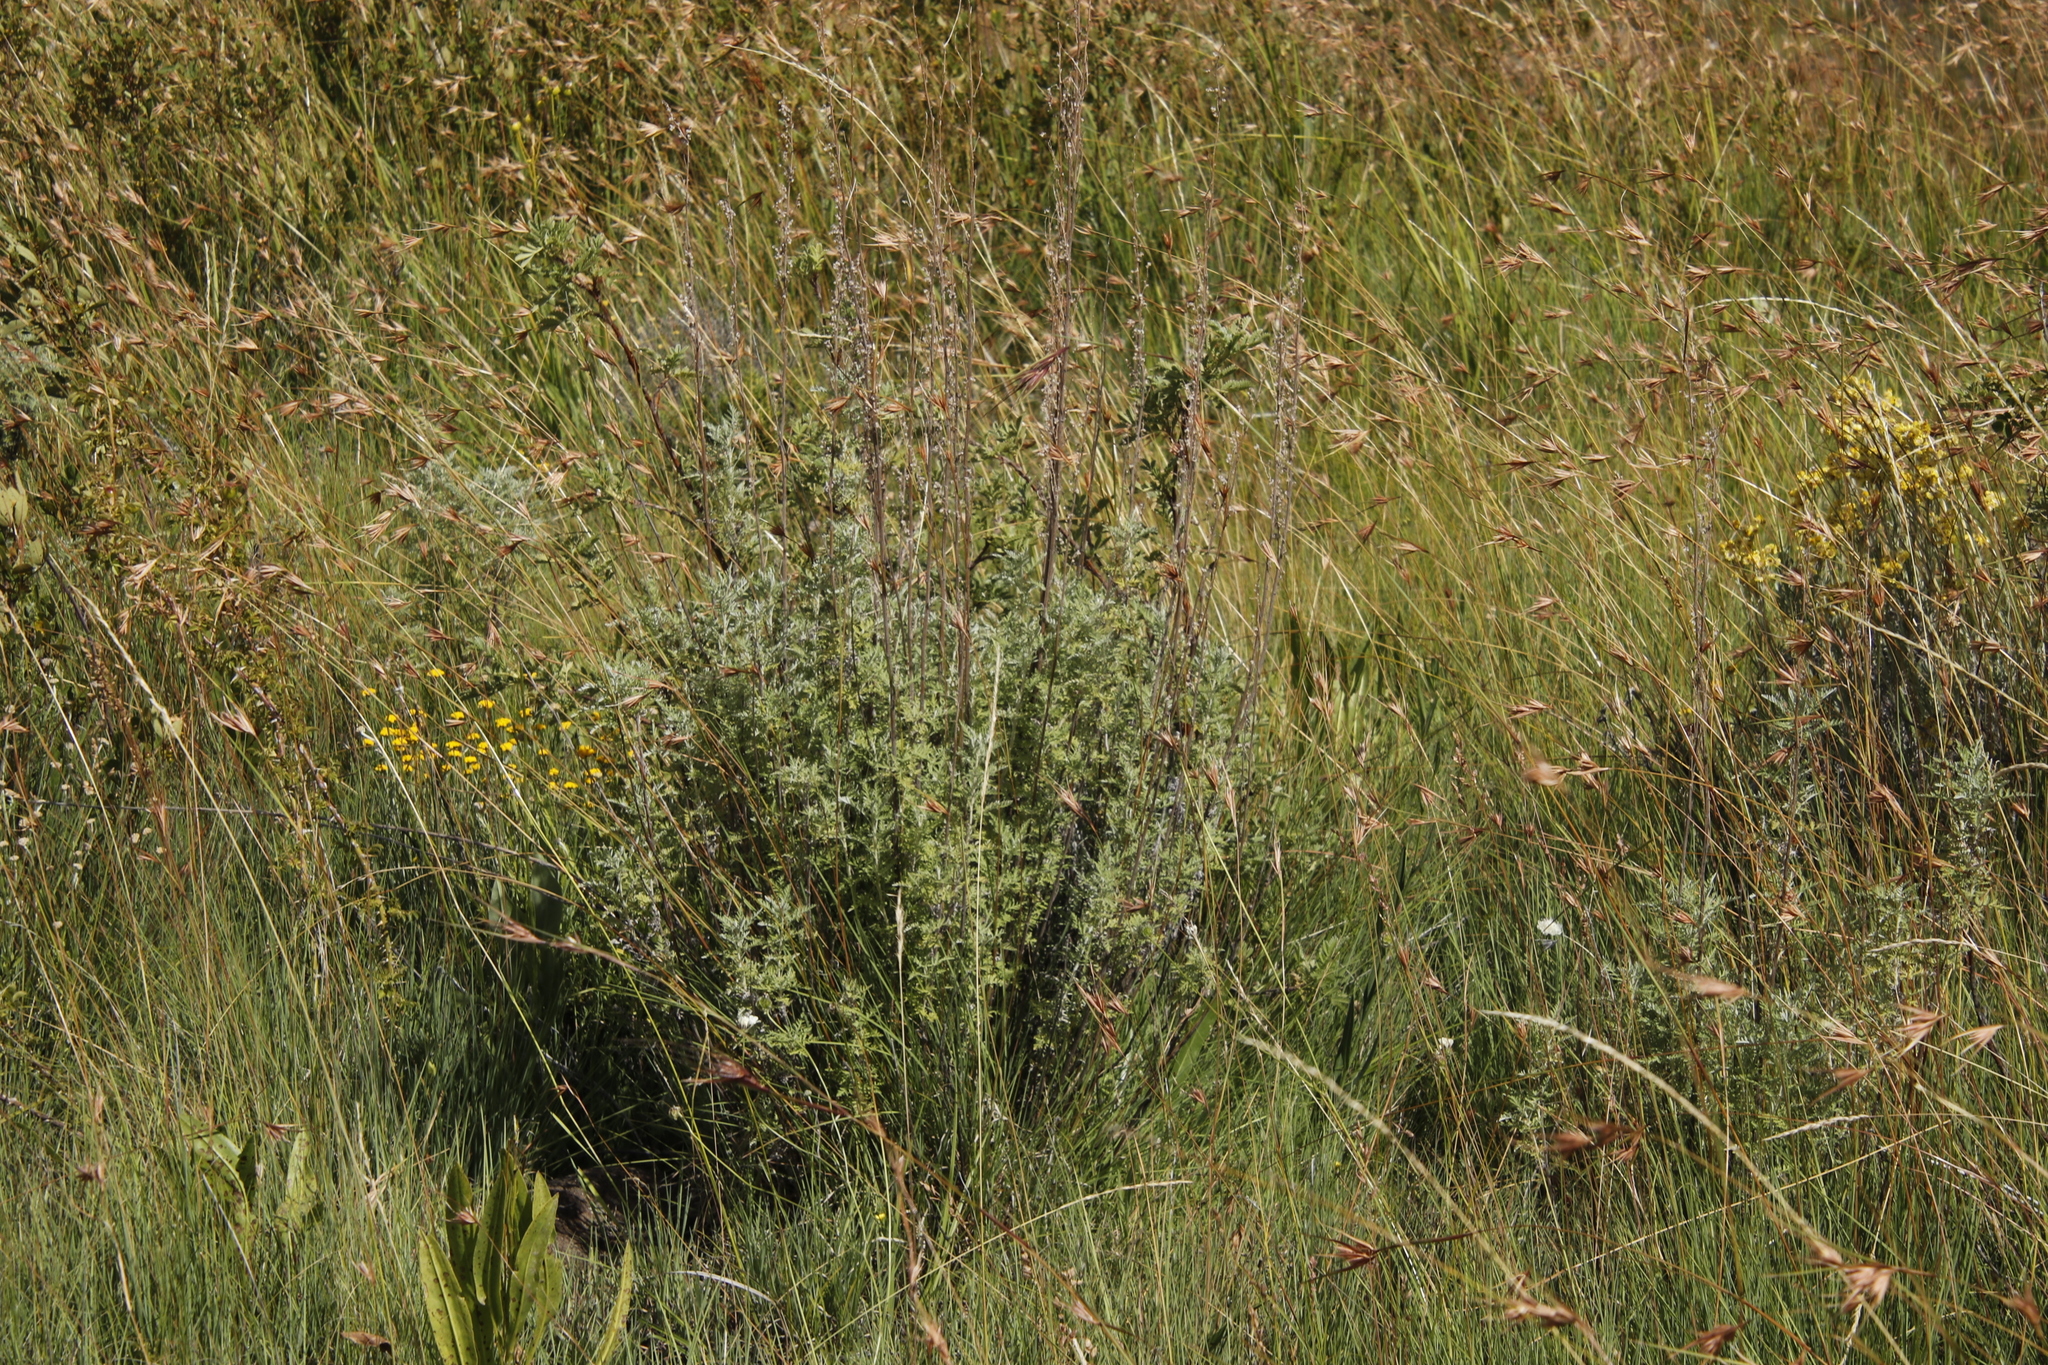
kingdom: Plantae
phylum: Tracheophyta
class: Magnoliopsida
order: Asterales
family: Asteraceae
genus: Artemisia
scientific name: Artemisia afra
